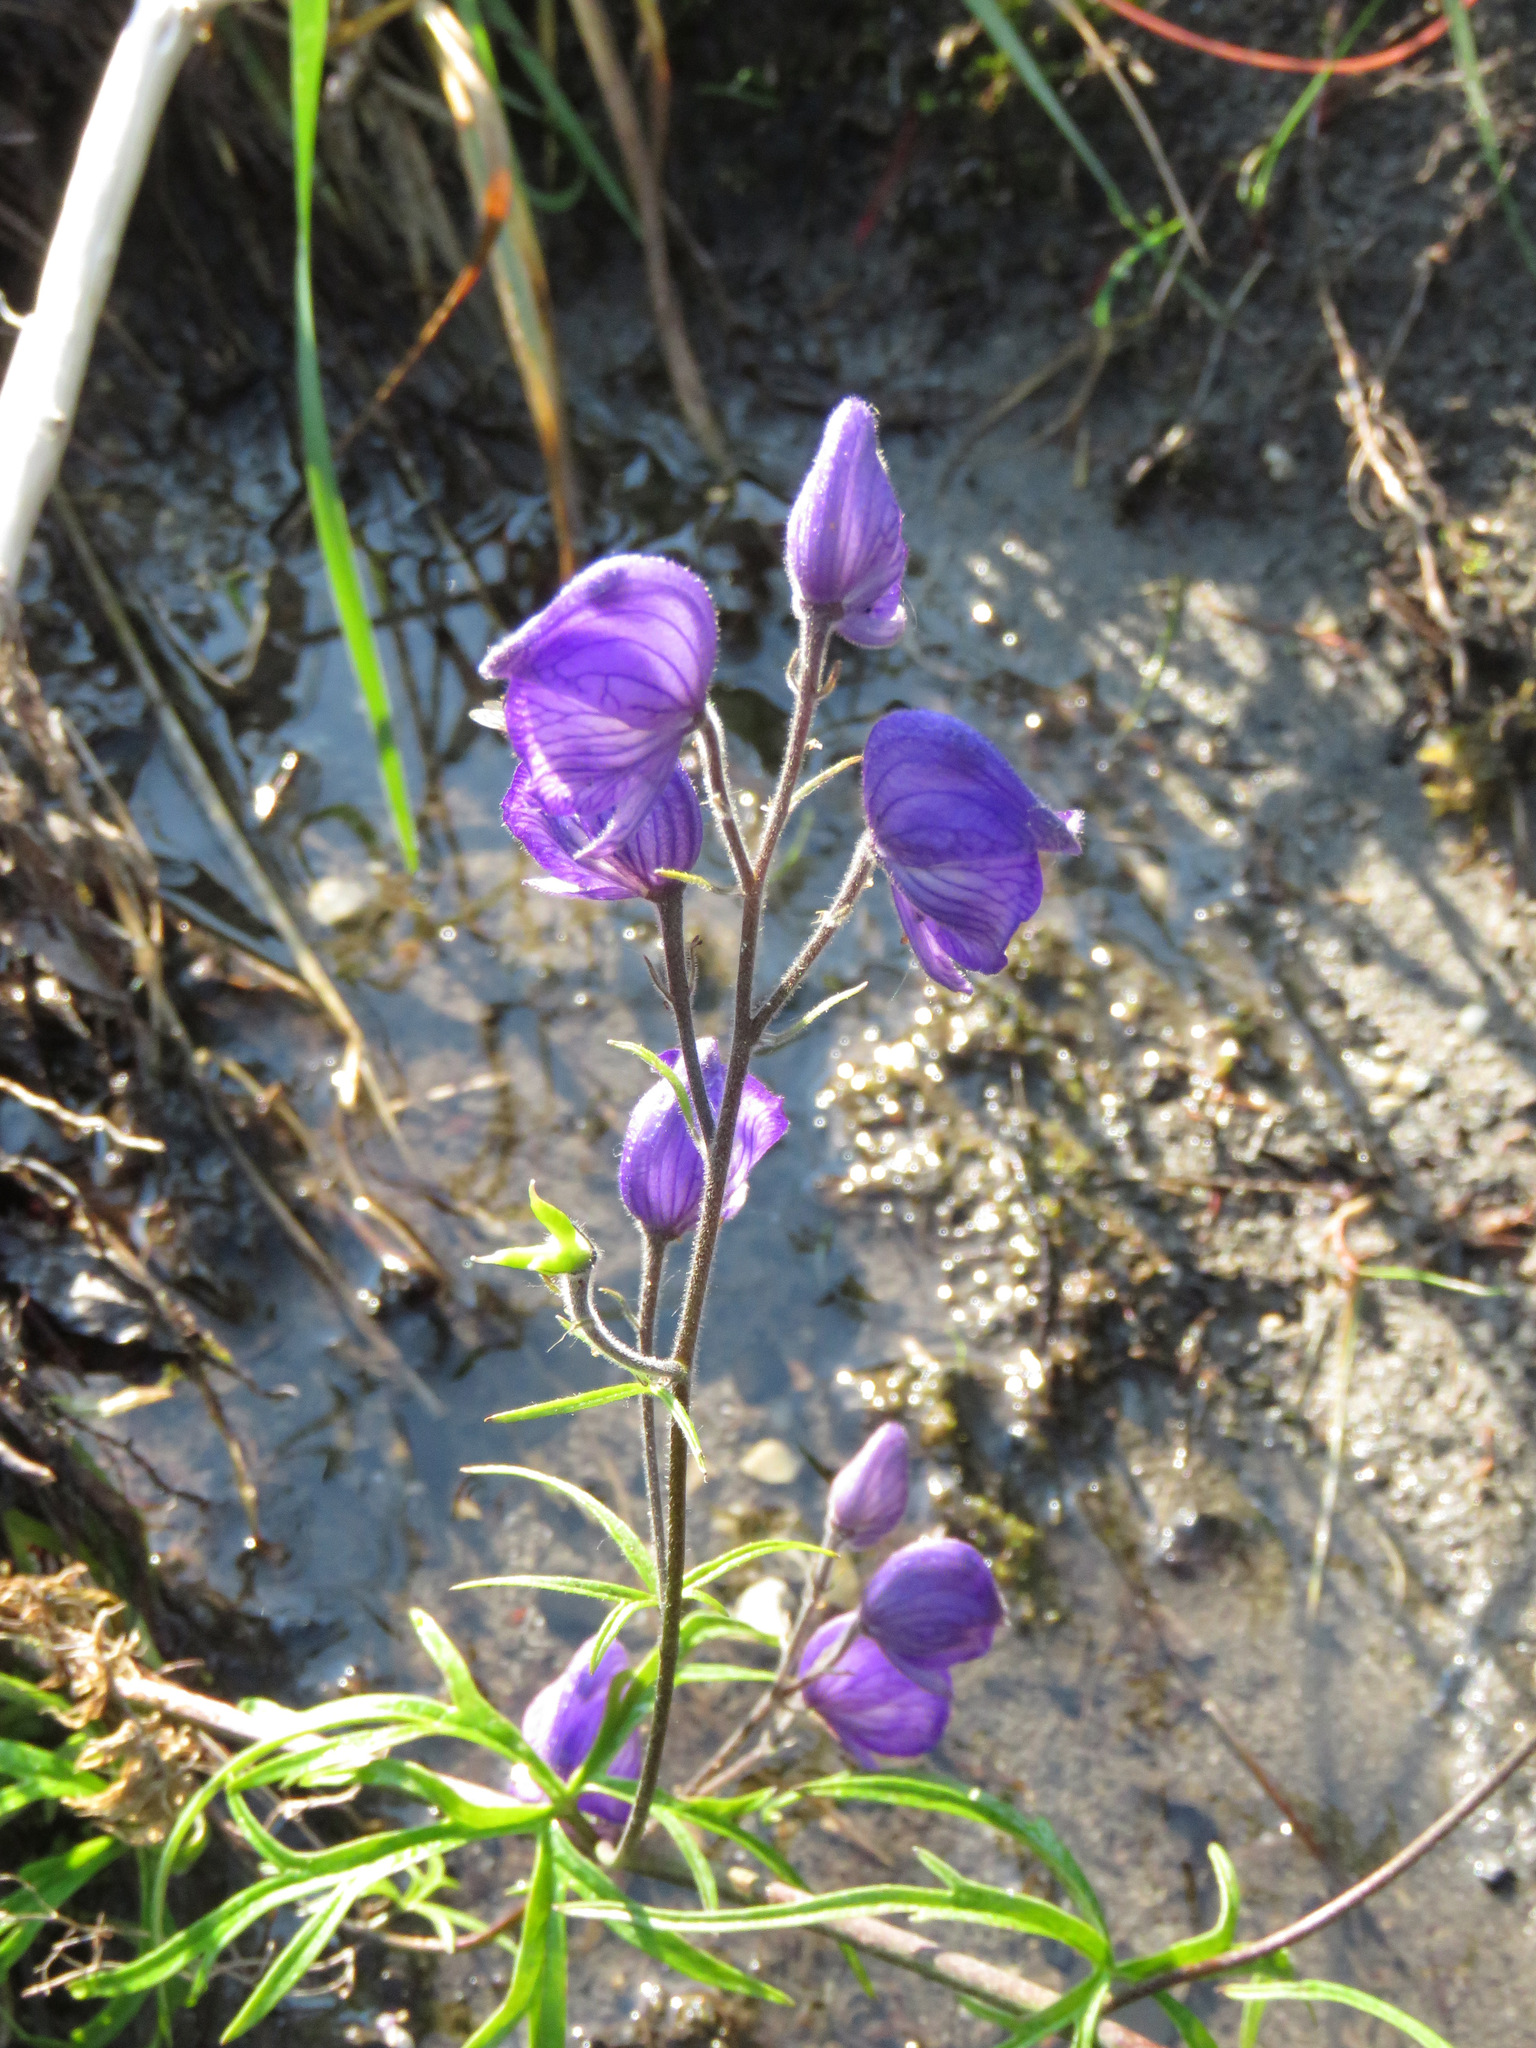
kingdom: Plantae
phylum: Tracheophyta
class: Magnoliopsida
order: Ranunculales
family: Ranunculaceae
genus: Aconitum
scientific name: Aconitum delphiniifolium
